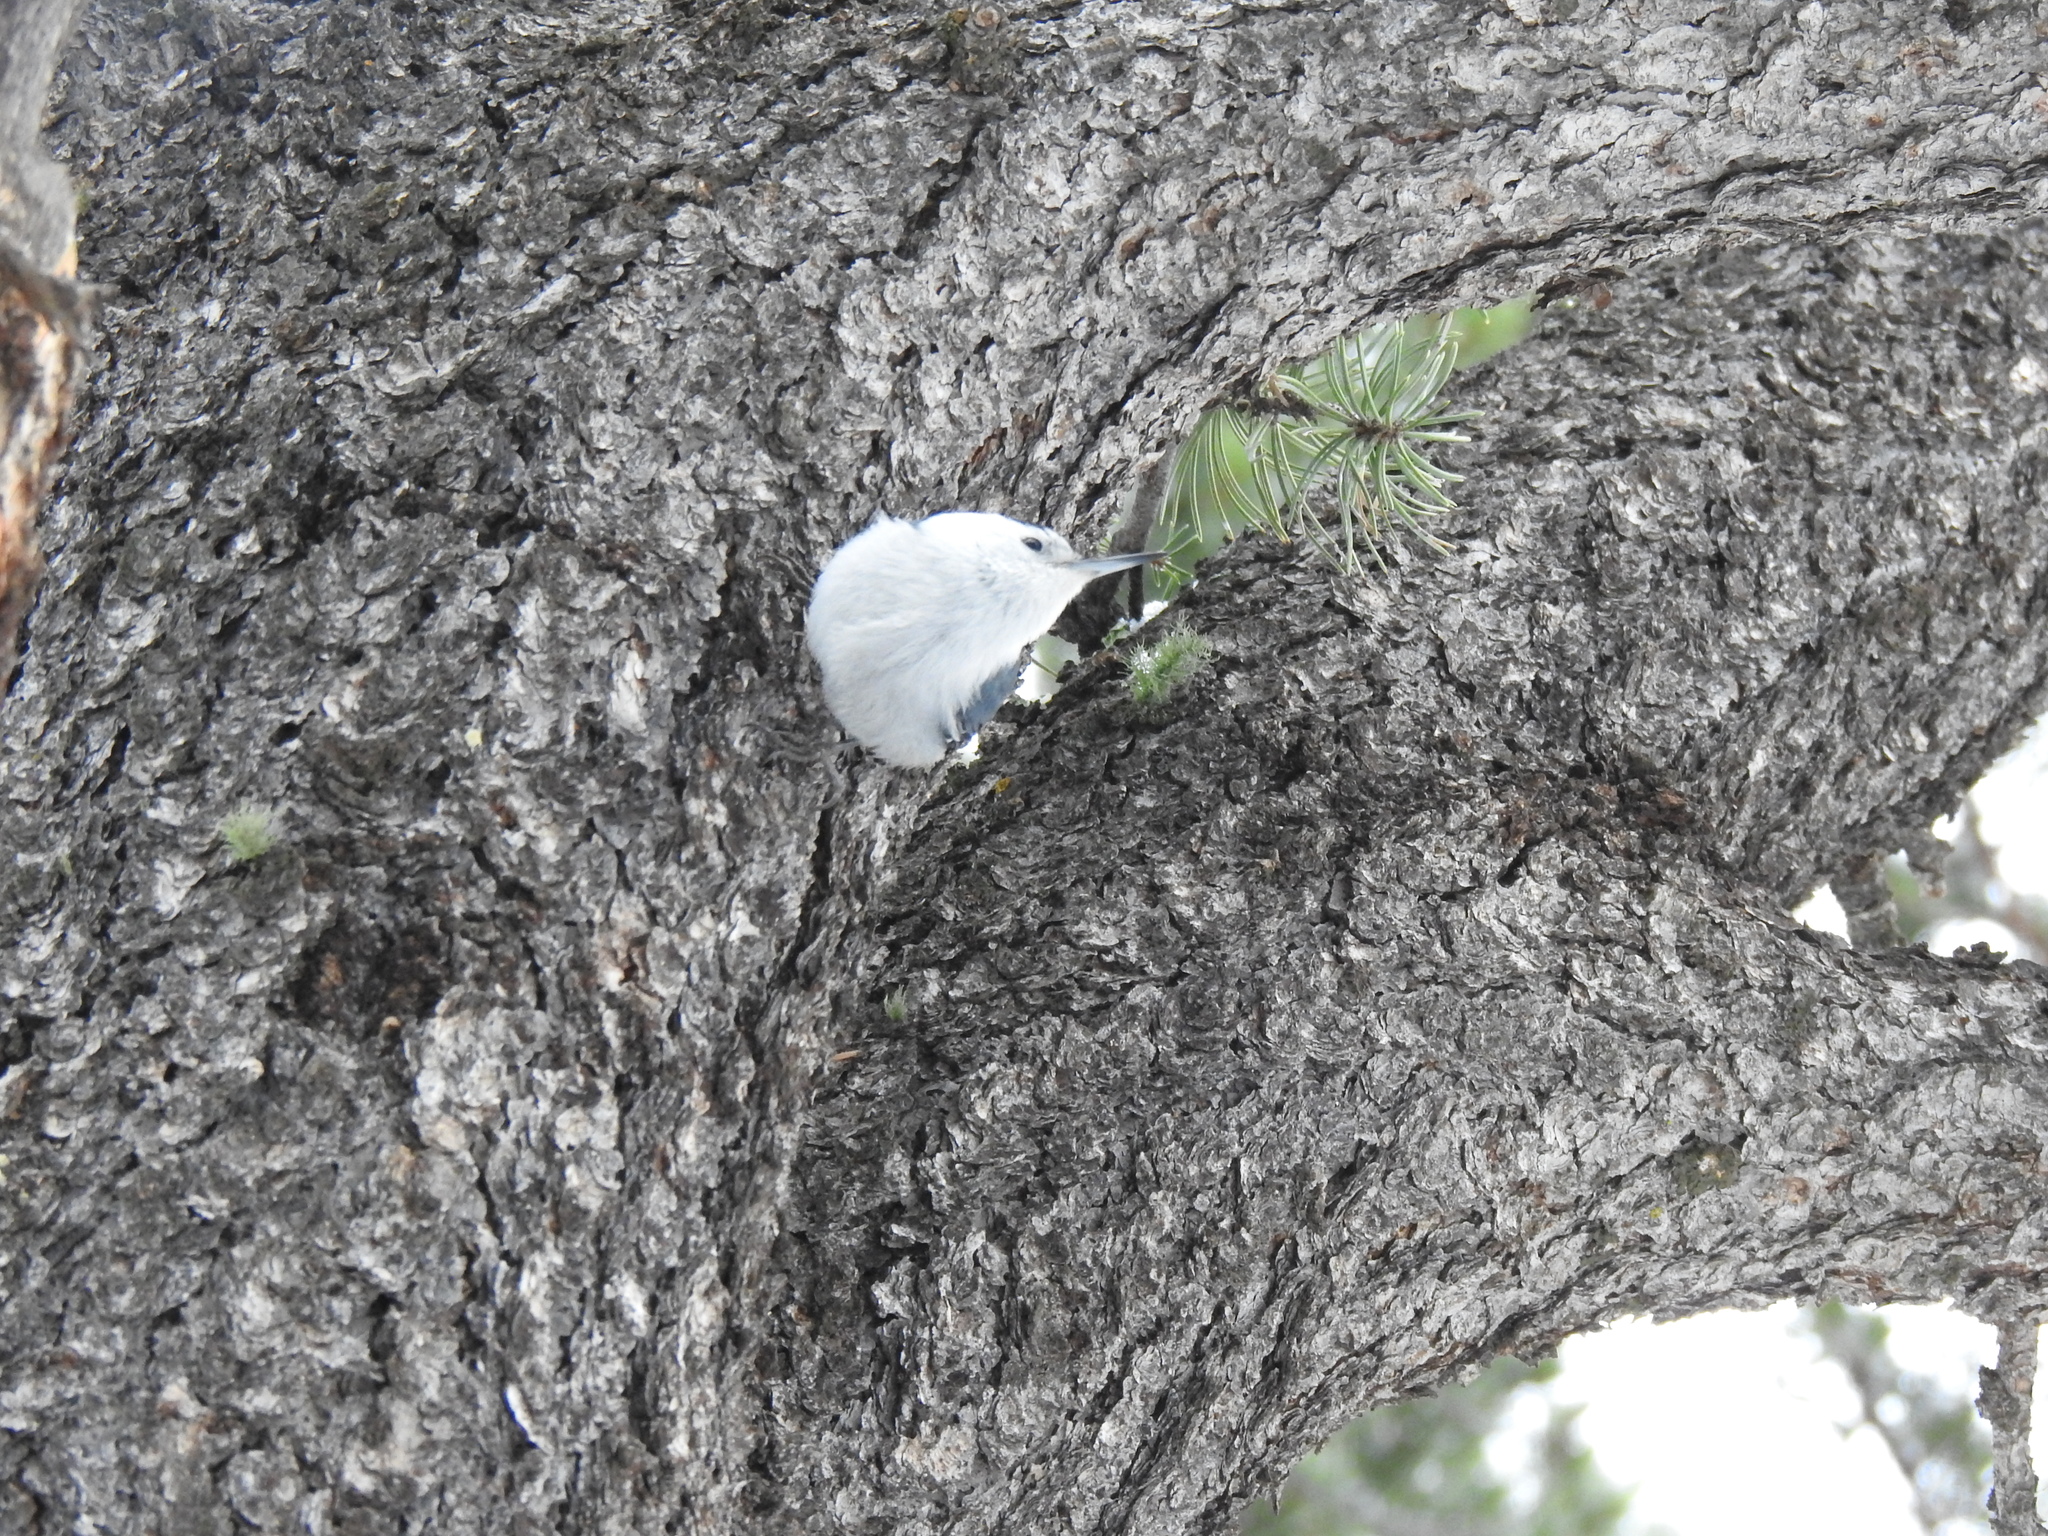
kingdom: Animalia
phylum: Chordata
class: Aves
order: Passeriformes
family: Sittidae
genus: Sitta
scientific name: Sitta carolinensis
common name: White-breasted nuthatch
